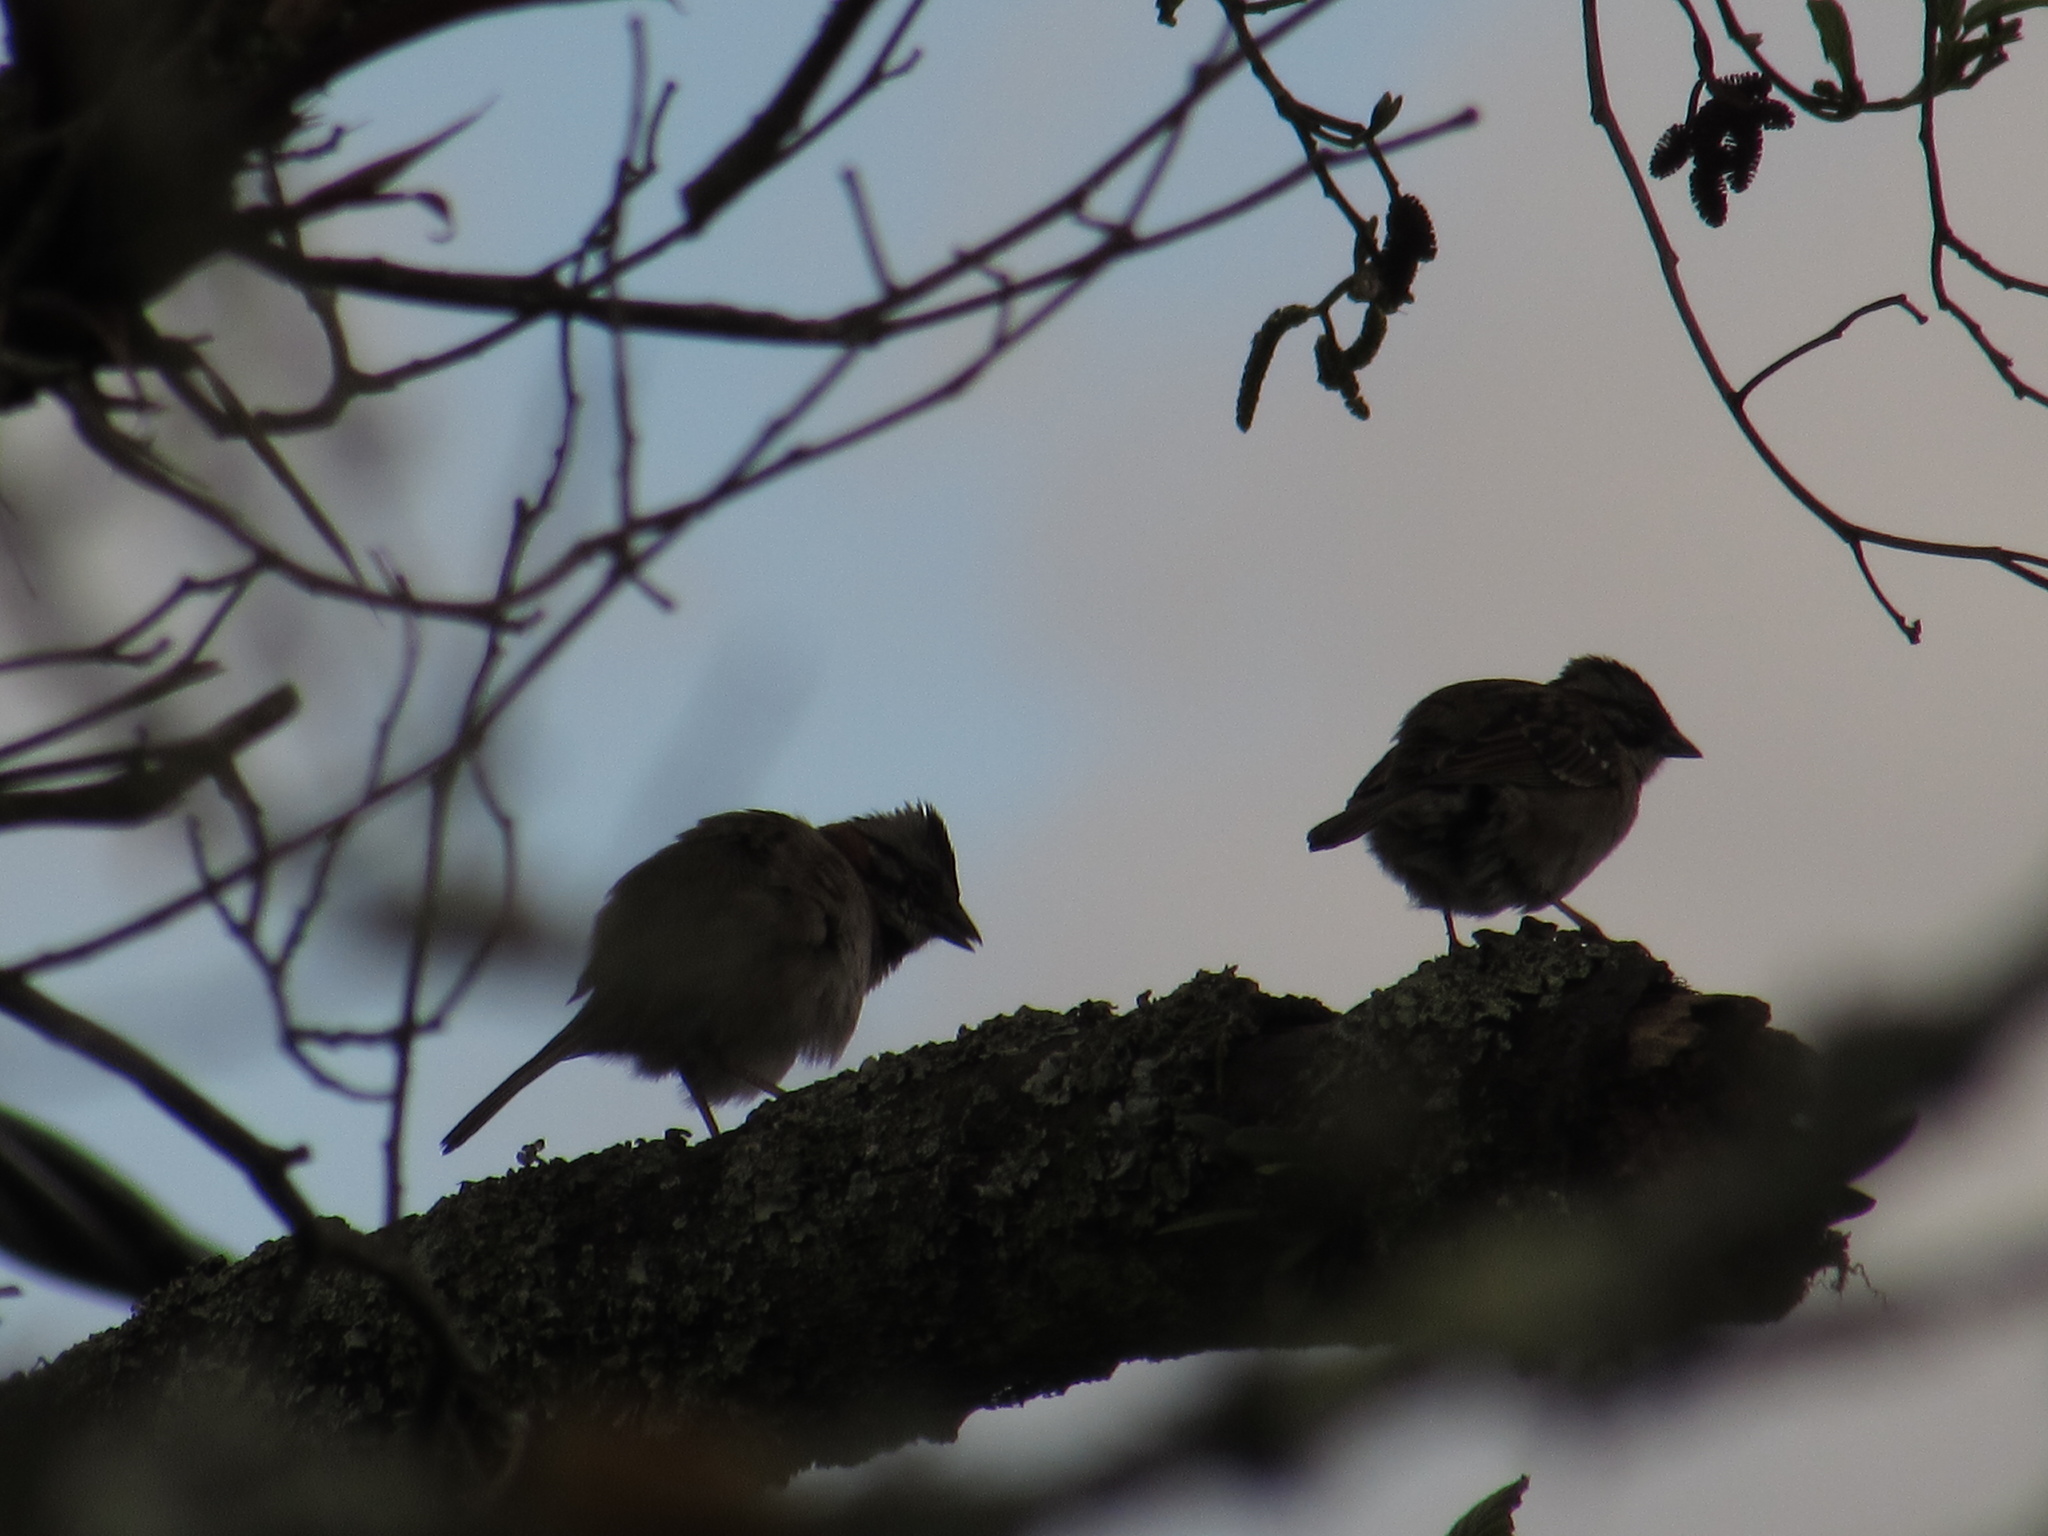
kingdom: Animalia
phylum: Chordata
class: Aves
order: Passeriformes
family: Passerellidae
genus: Zonotrichia
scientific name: Zonotrichia capensis
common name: Rufous-collared sparrow
